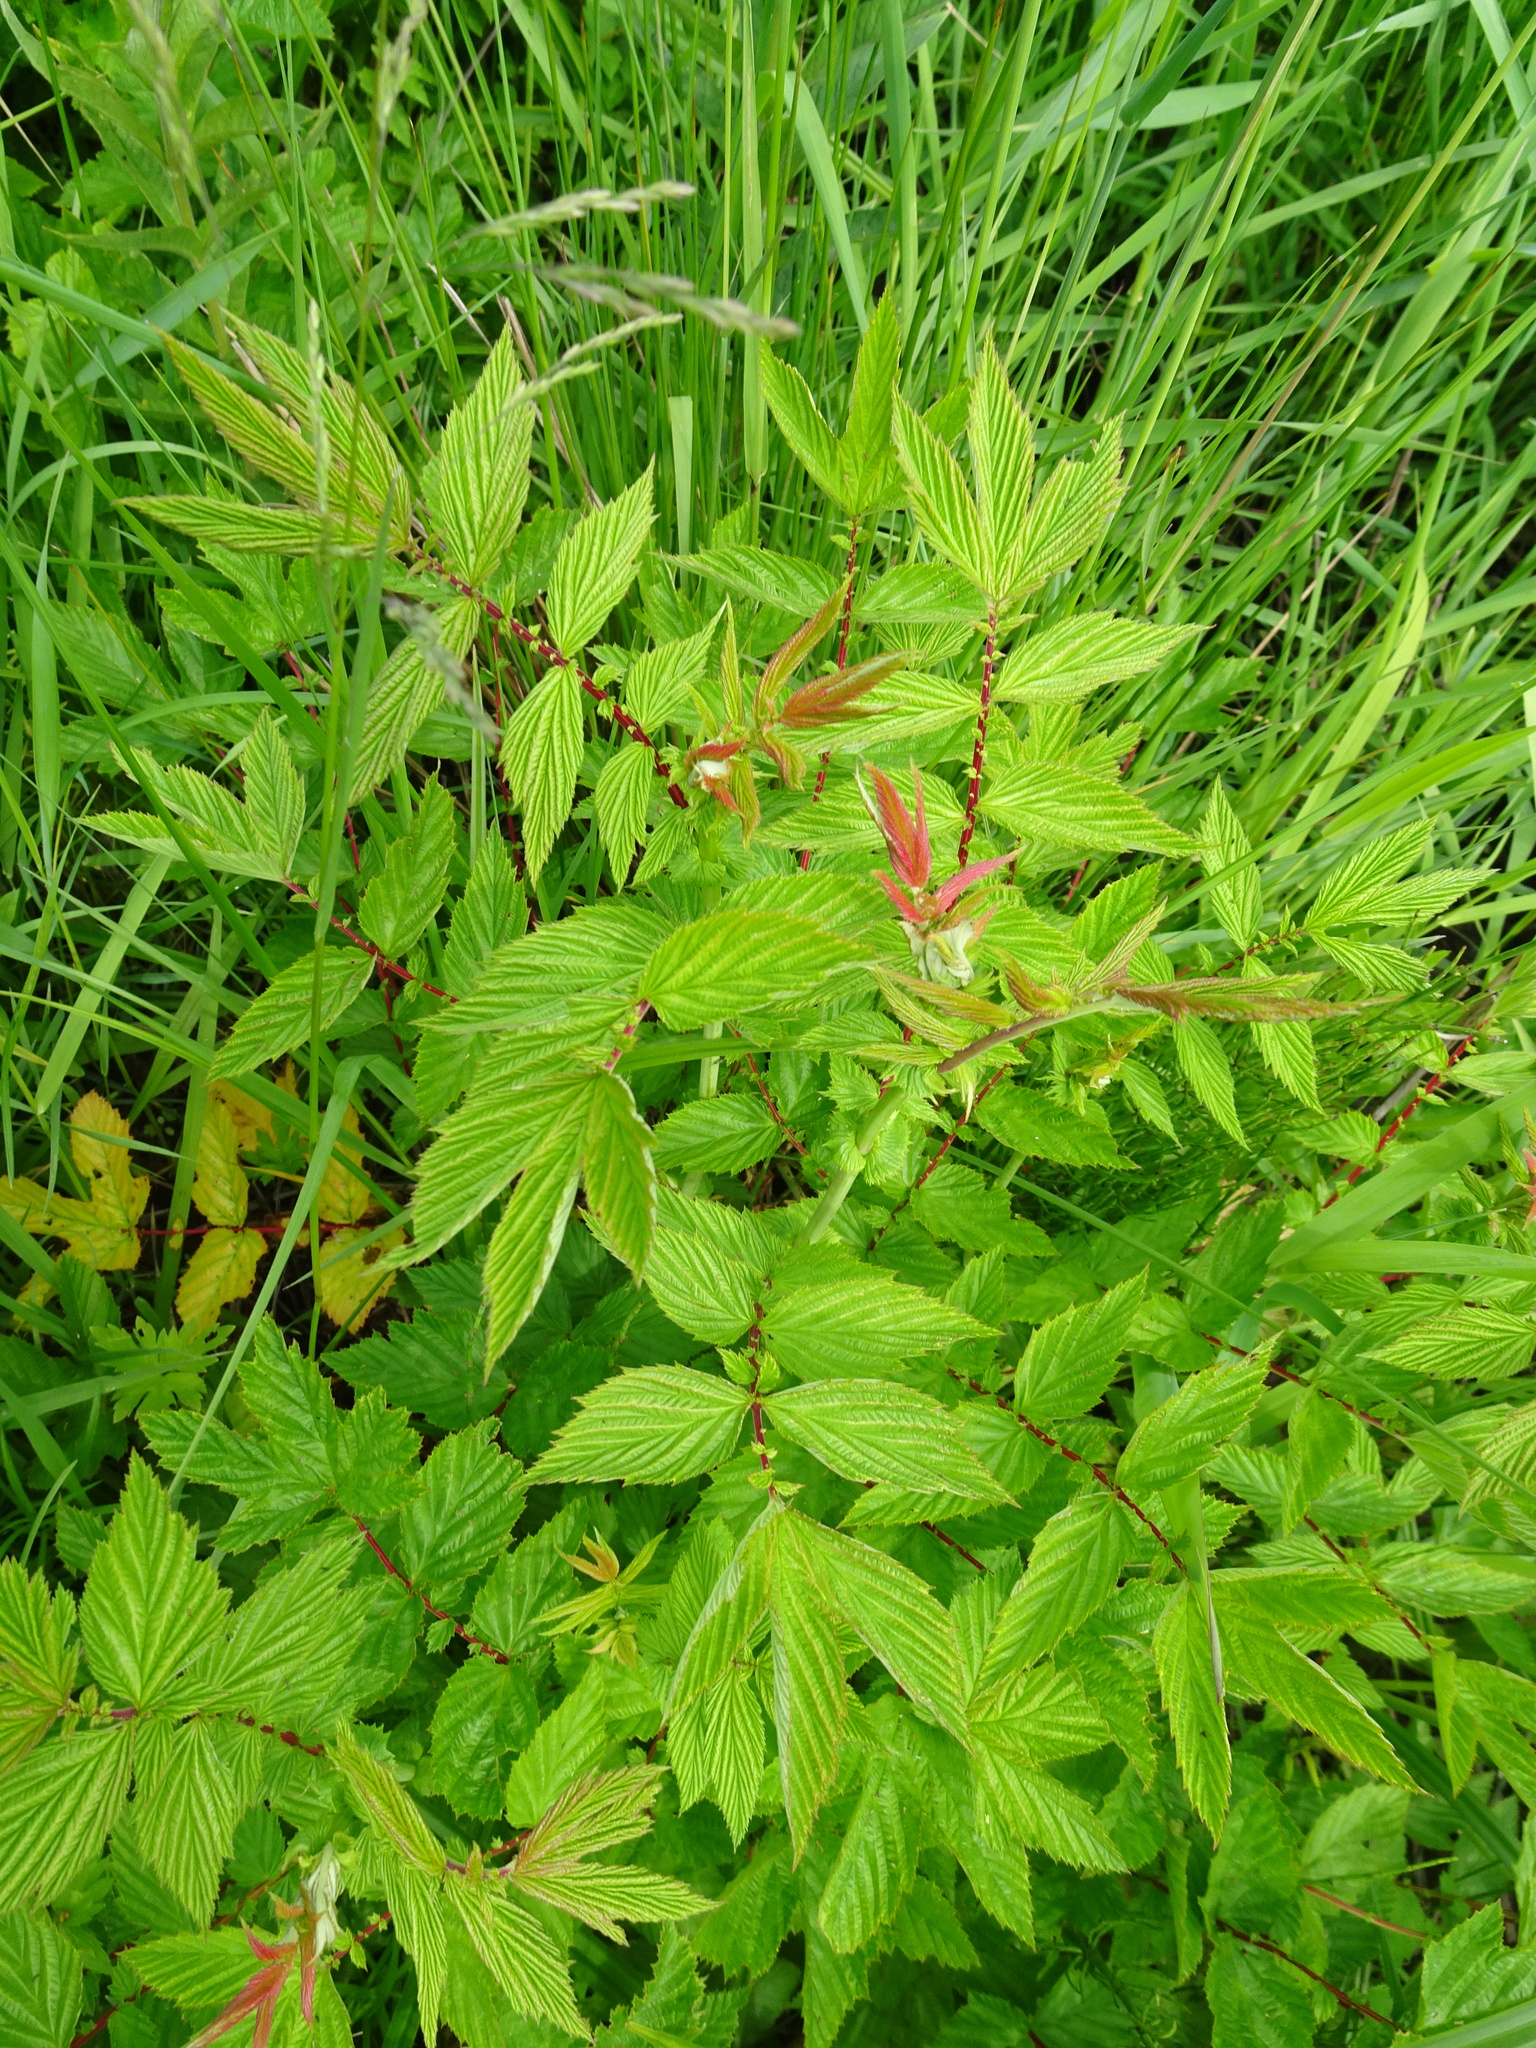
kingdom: Plantae
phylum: Tracheophyta
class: Magnoliopsida
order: Rosales
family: Rosaceae
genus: Filipendula
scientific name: Filipendula ulmaria
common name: Meadowsweet
